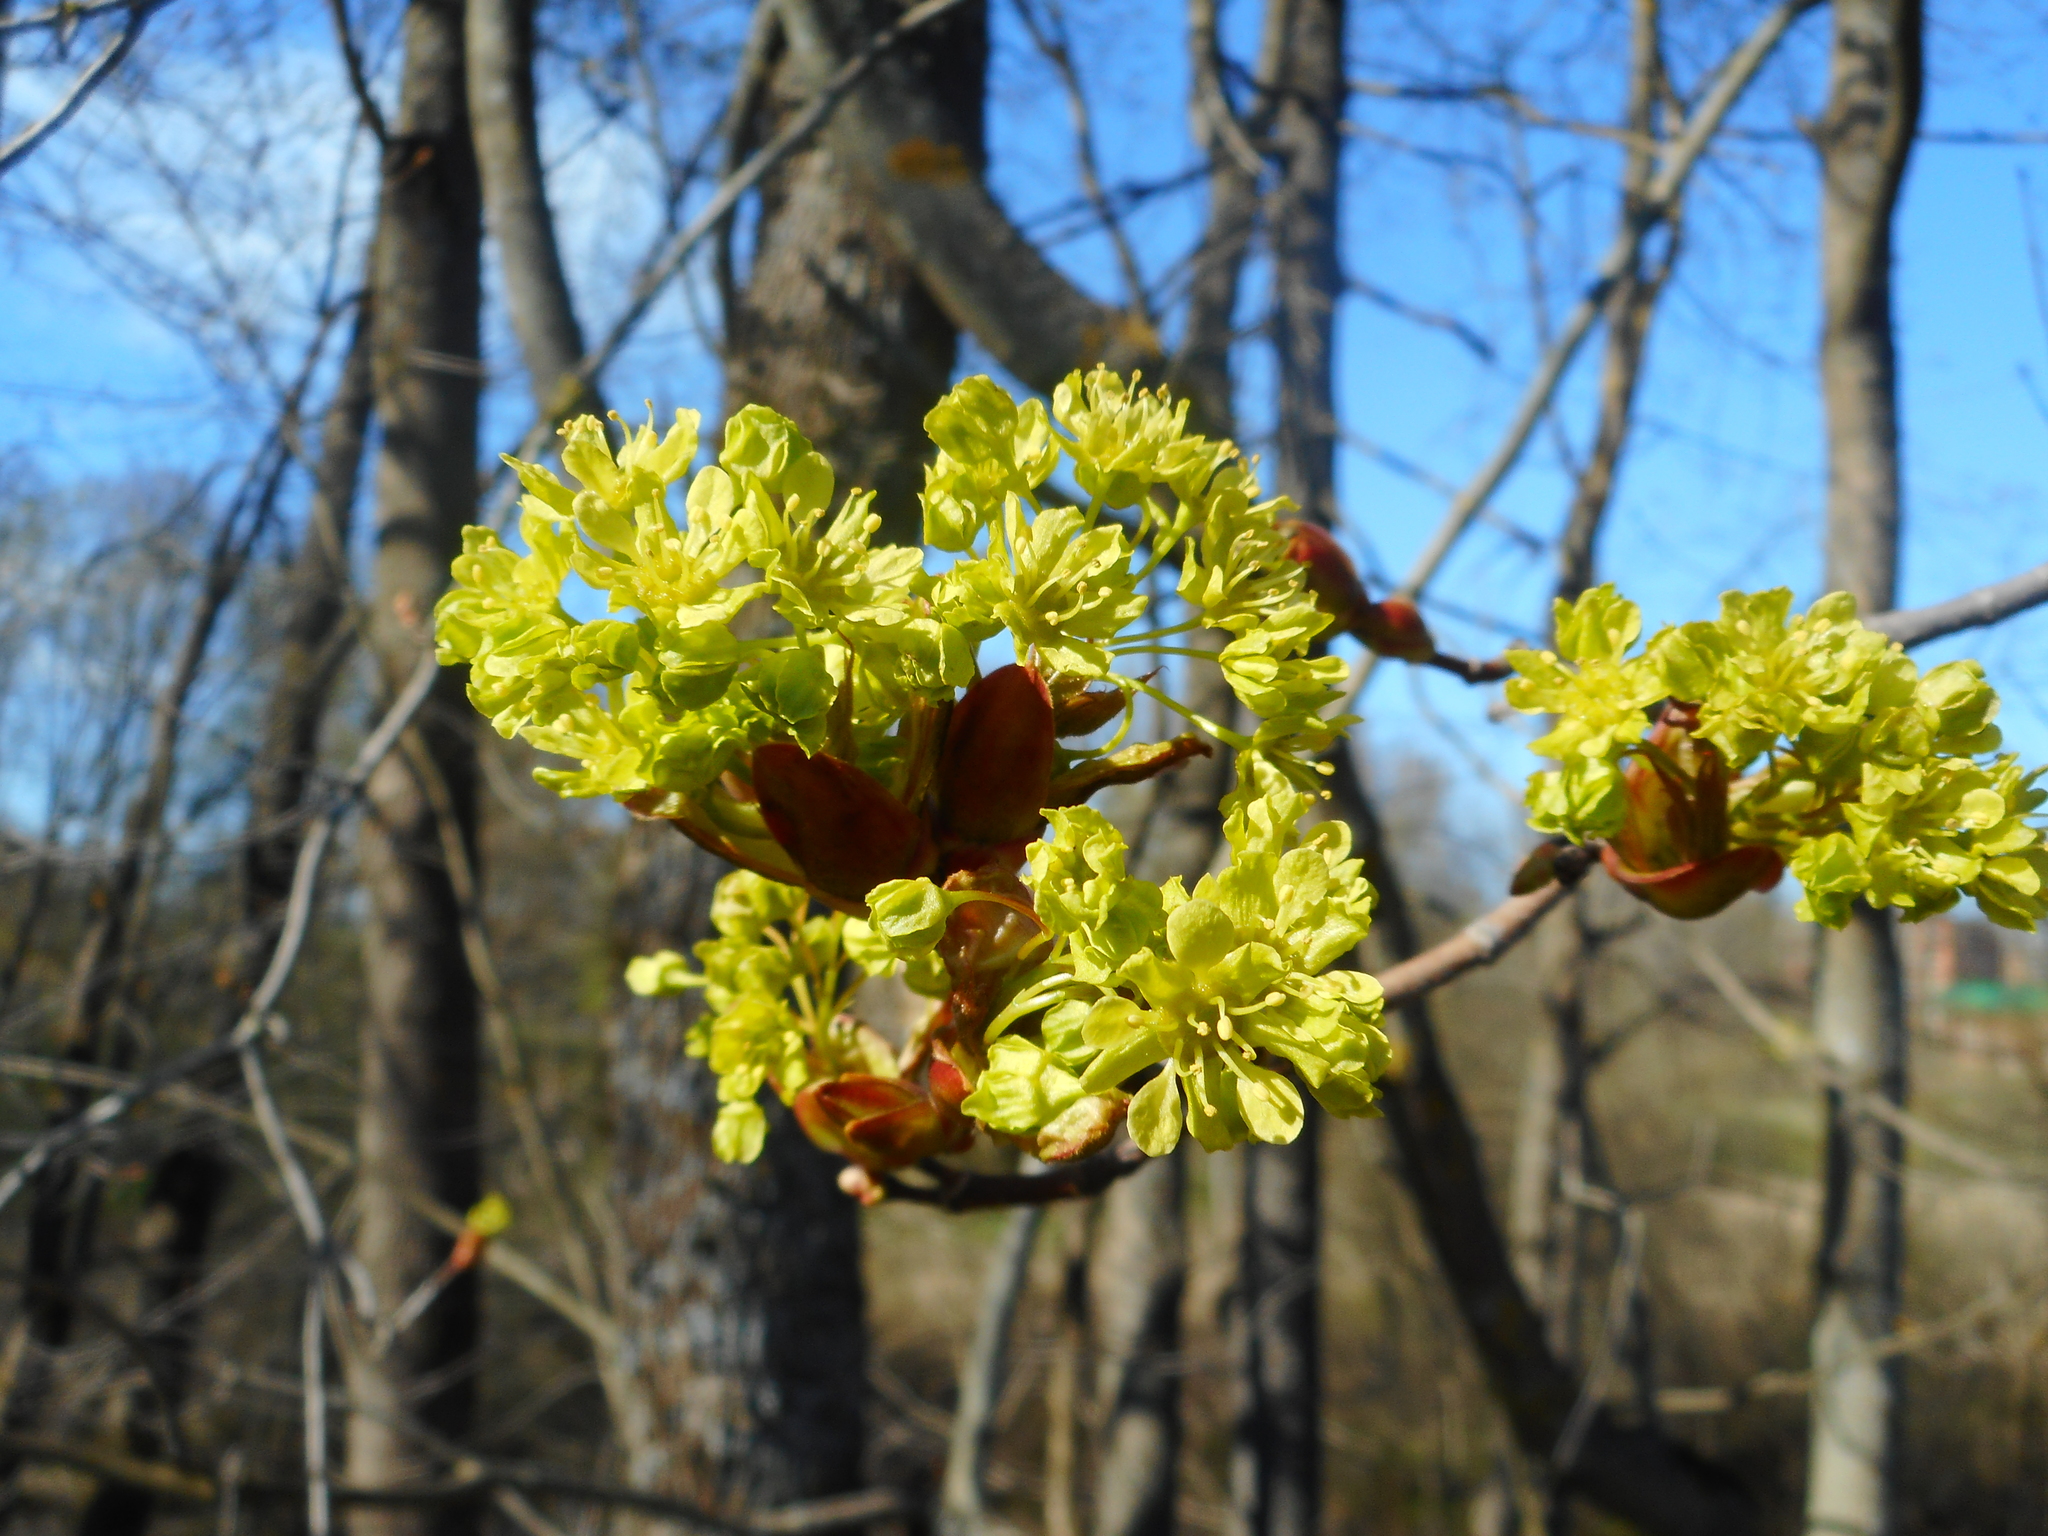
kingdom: Plantae
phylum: Tracheophyta
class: Magnoliopsida
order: Sapindales
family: Sapindaceae
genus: Acer
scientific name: Acer platanoides
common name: Norway maple
